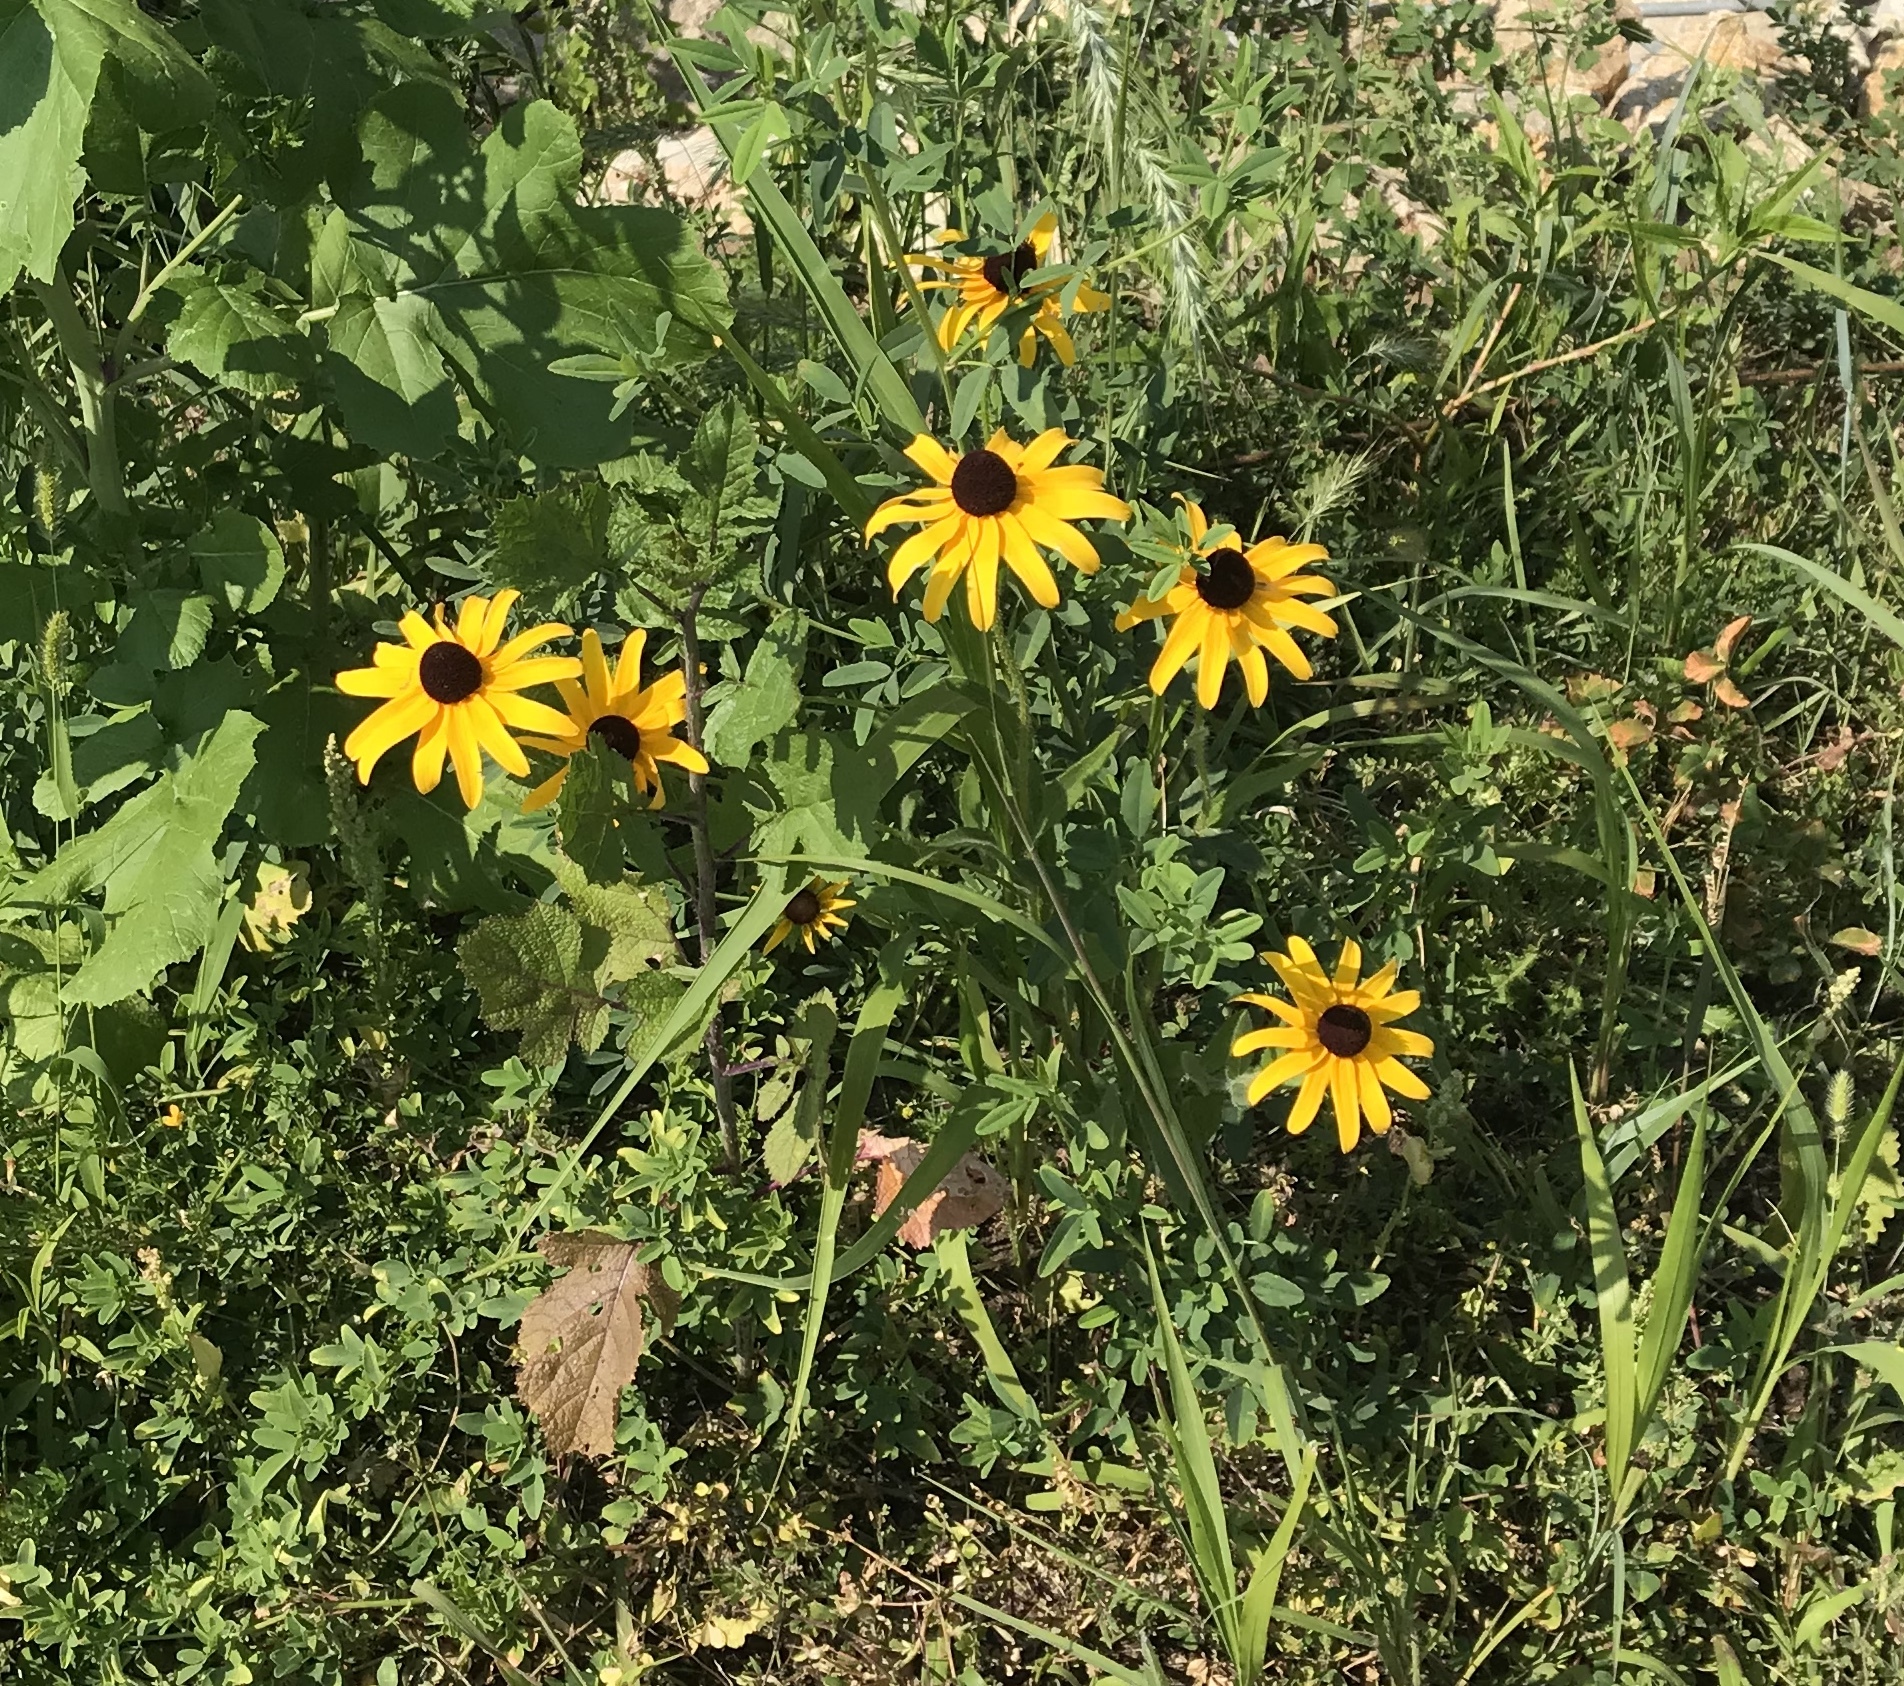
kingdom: Plantae
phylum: Tracheophyta
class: Magnoliopsida
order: Asterales
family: Asteraceae
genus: Rudbeckia
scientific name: Rudbeckia hirta
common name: Black-eyed-susan
